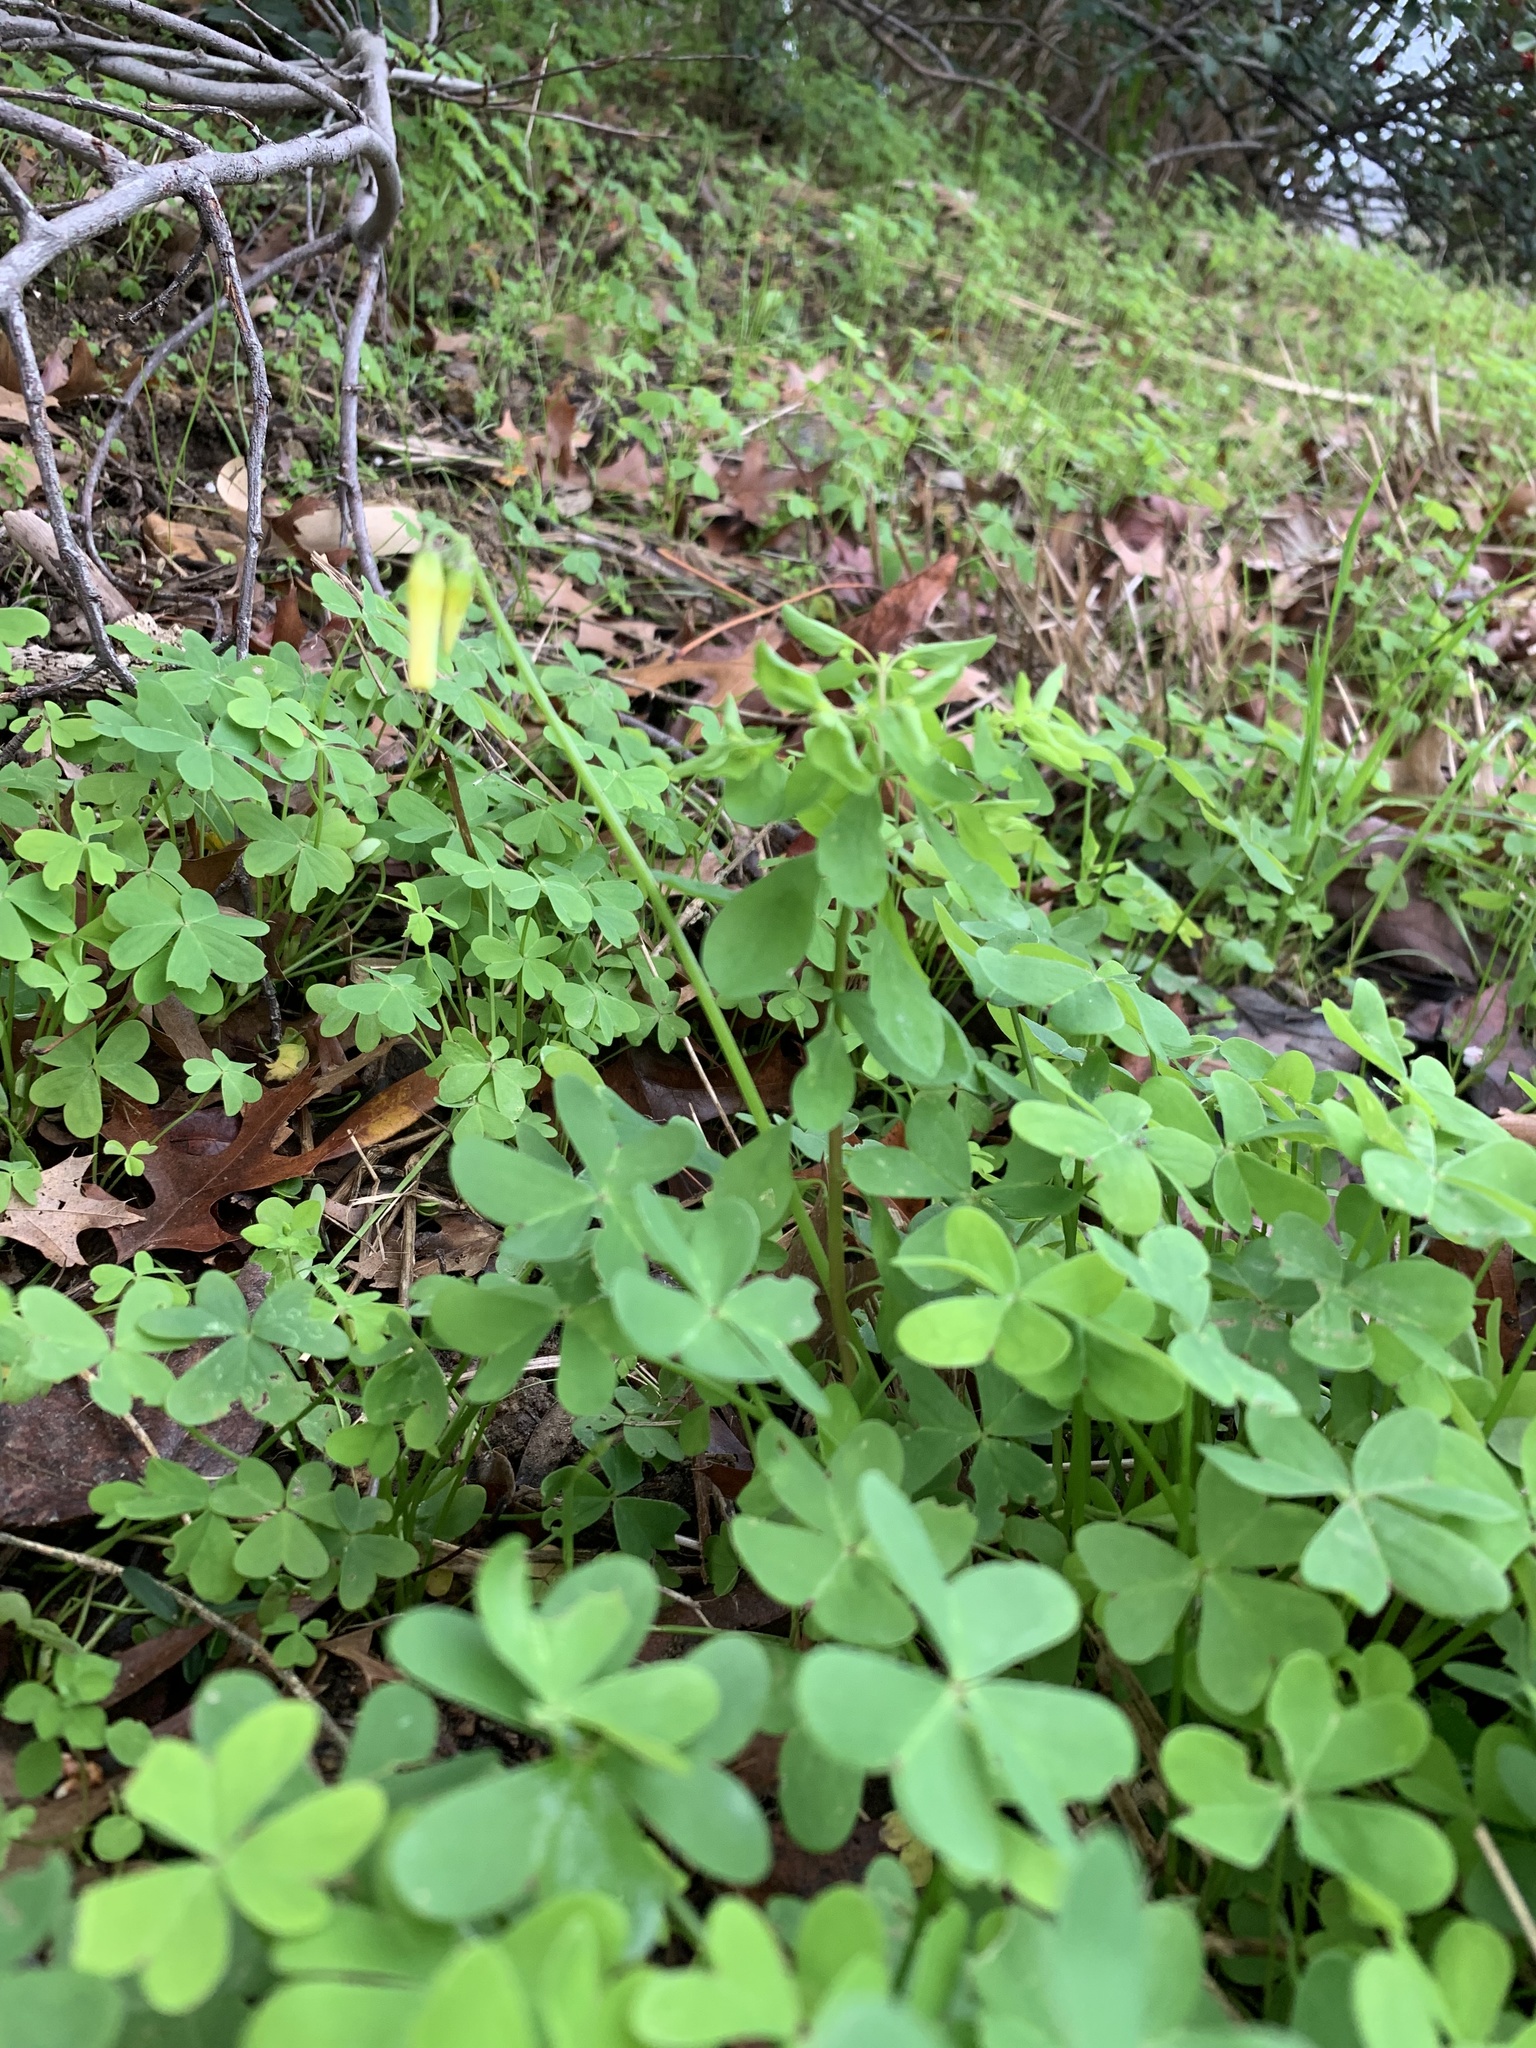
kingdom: Plantae
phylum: Tracheophyta
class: Magnoliopsida
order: Oxalidales
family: Oxalidaceae
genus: Oxalis
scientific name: Oxalis pes-caprae
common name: Bermuda-buttercup
